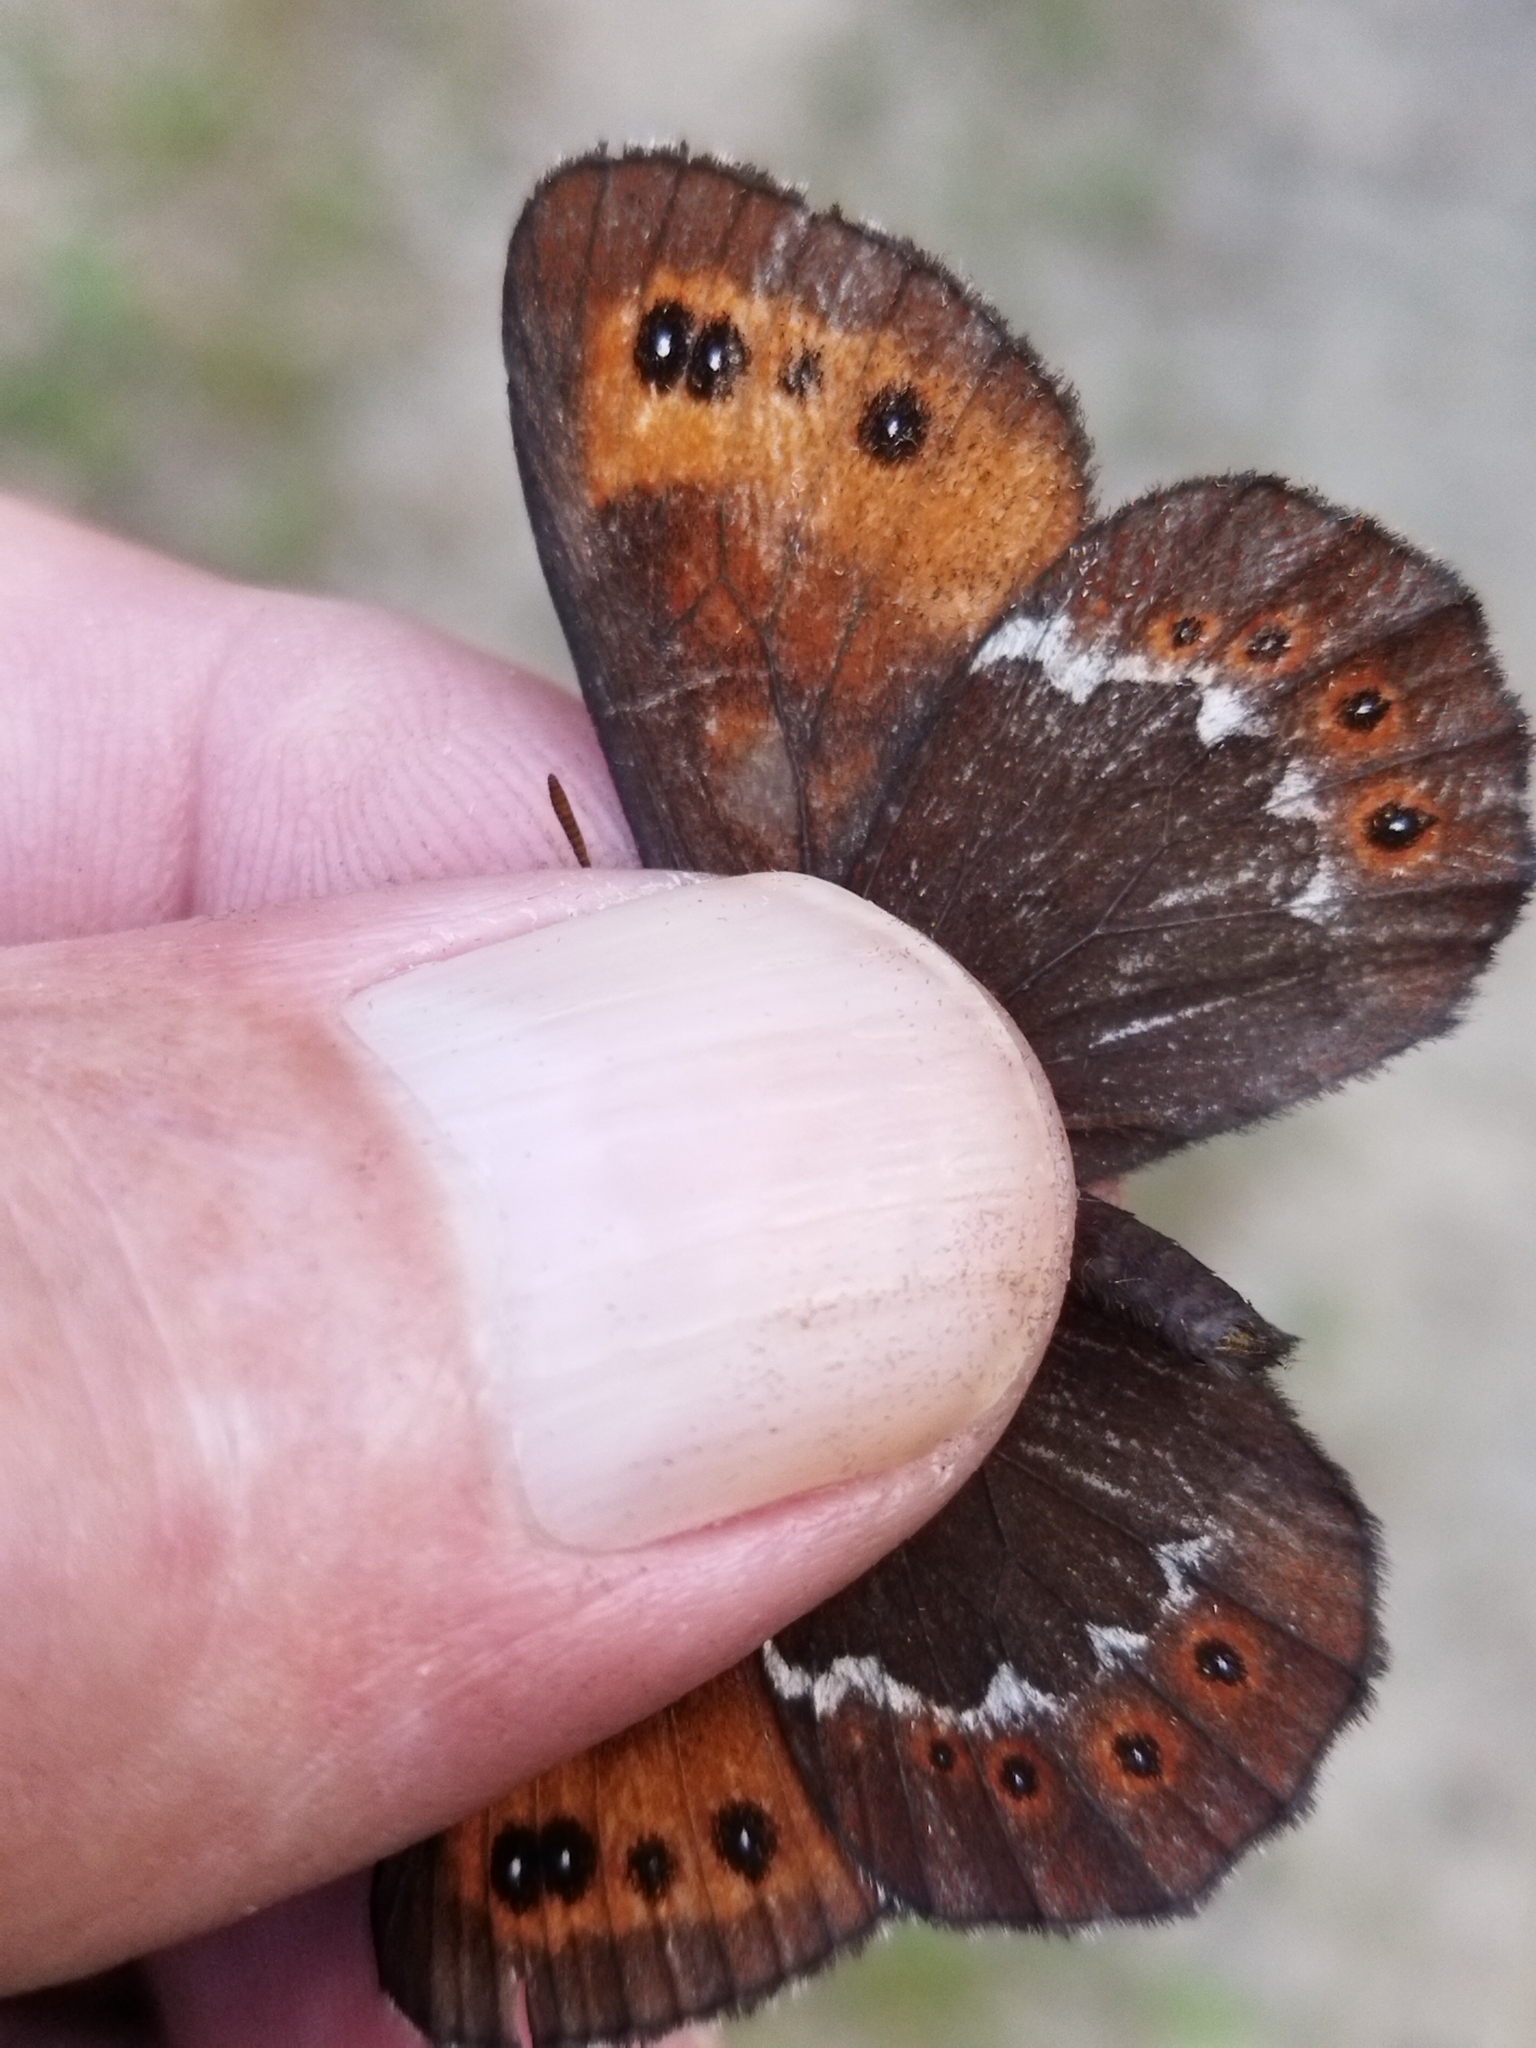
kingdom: Animalia
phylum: Arthropoda
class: Insecta
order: Lepidoptera
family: Nymphalidae
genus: Erebia
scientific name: Erebia ligea
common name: Arran brown
